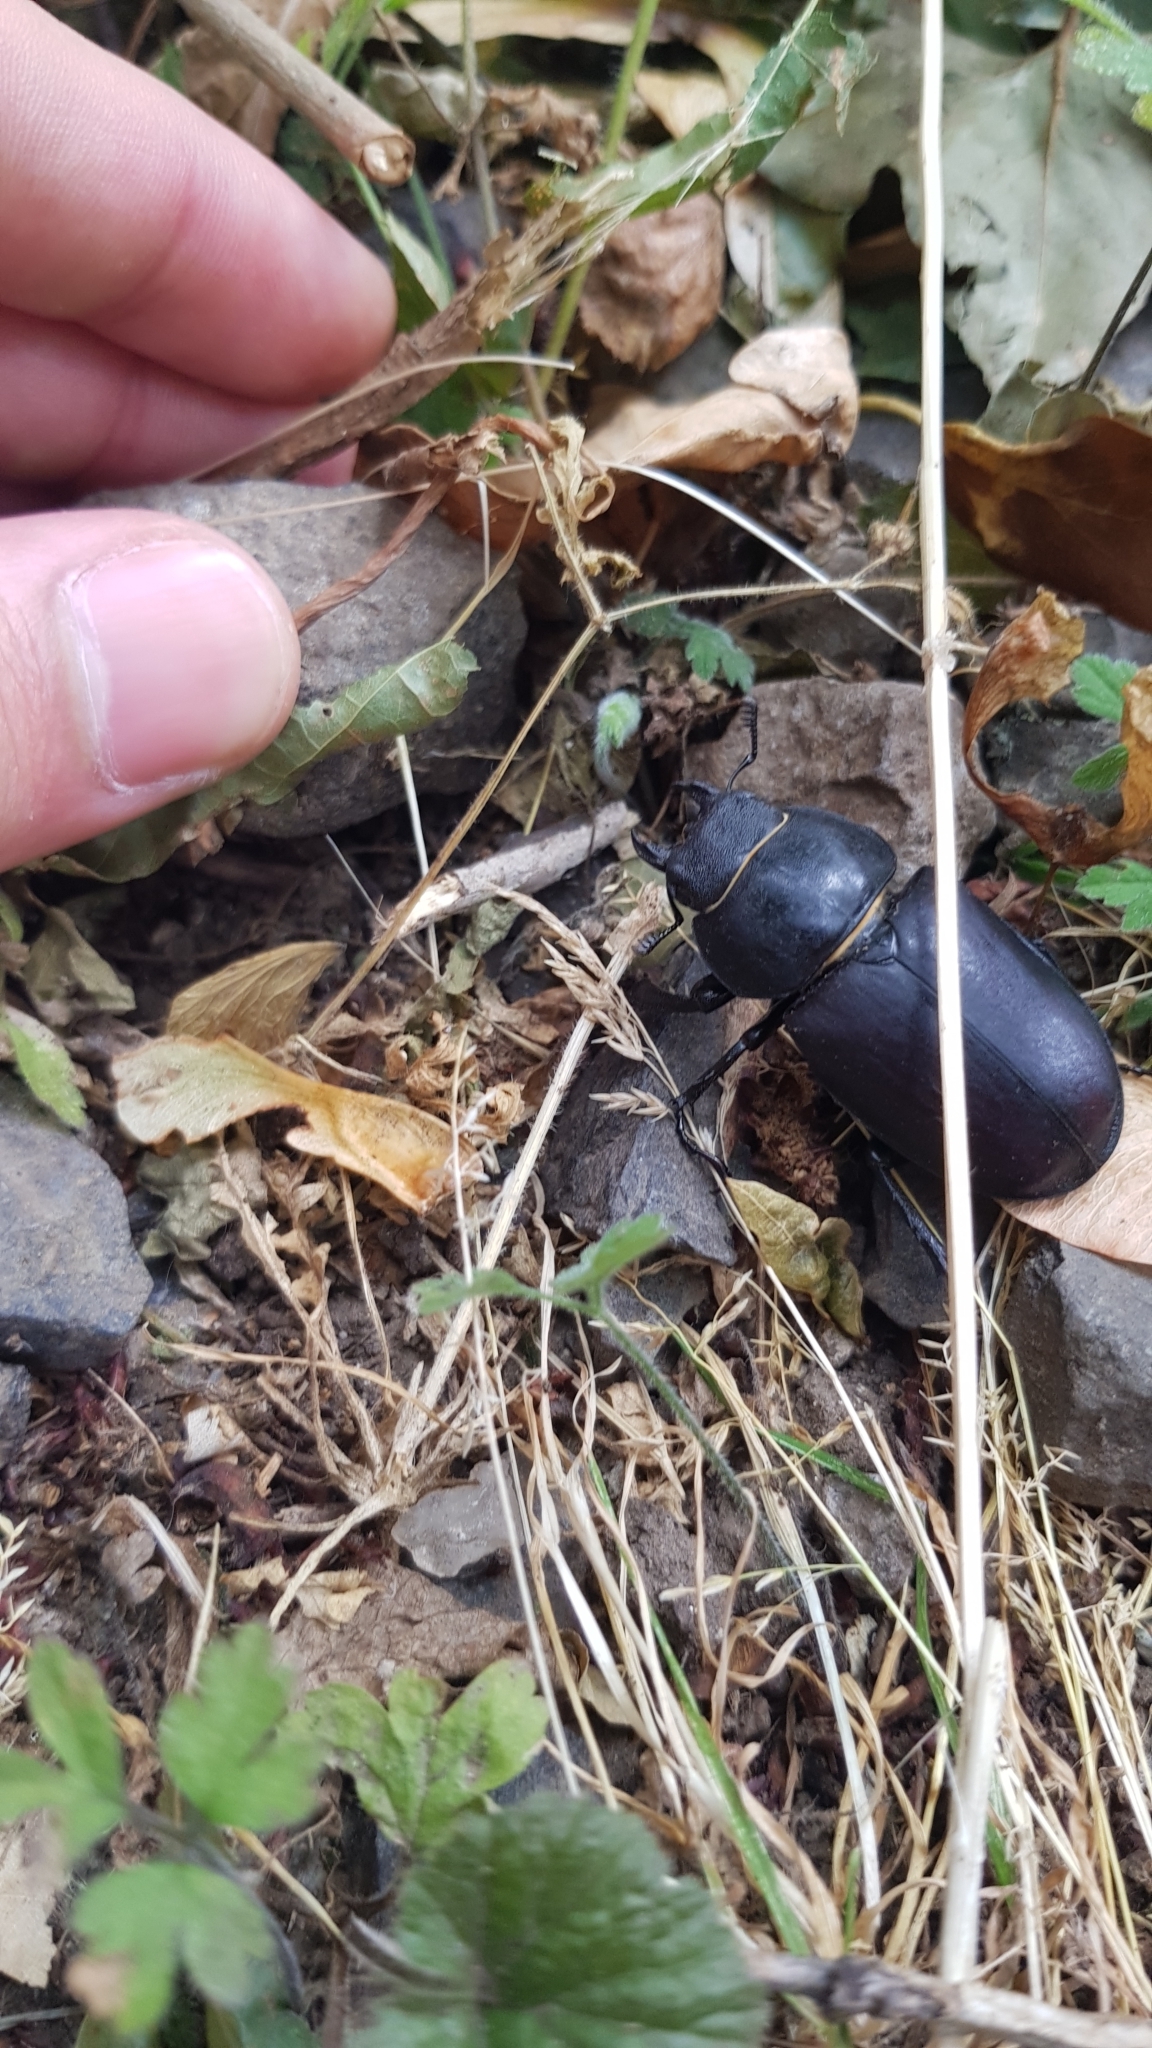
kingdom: Animalia
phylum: Arthropoda
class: Insecta
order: Coleoptera
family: Lucanidae
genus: Lucanus
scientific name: Lucanus cervus
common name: Stag beetle
